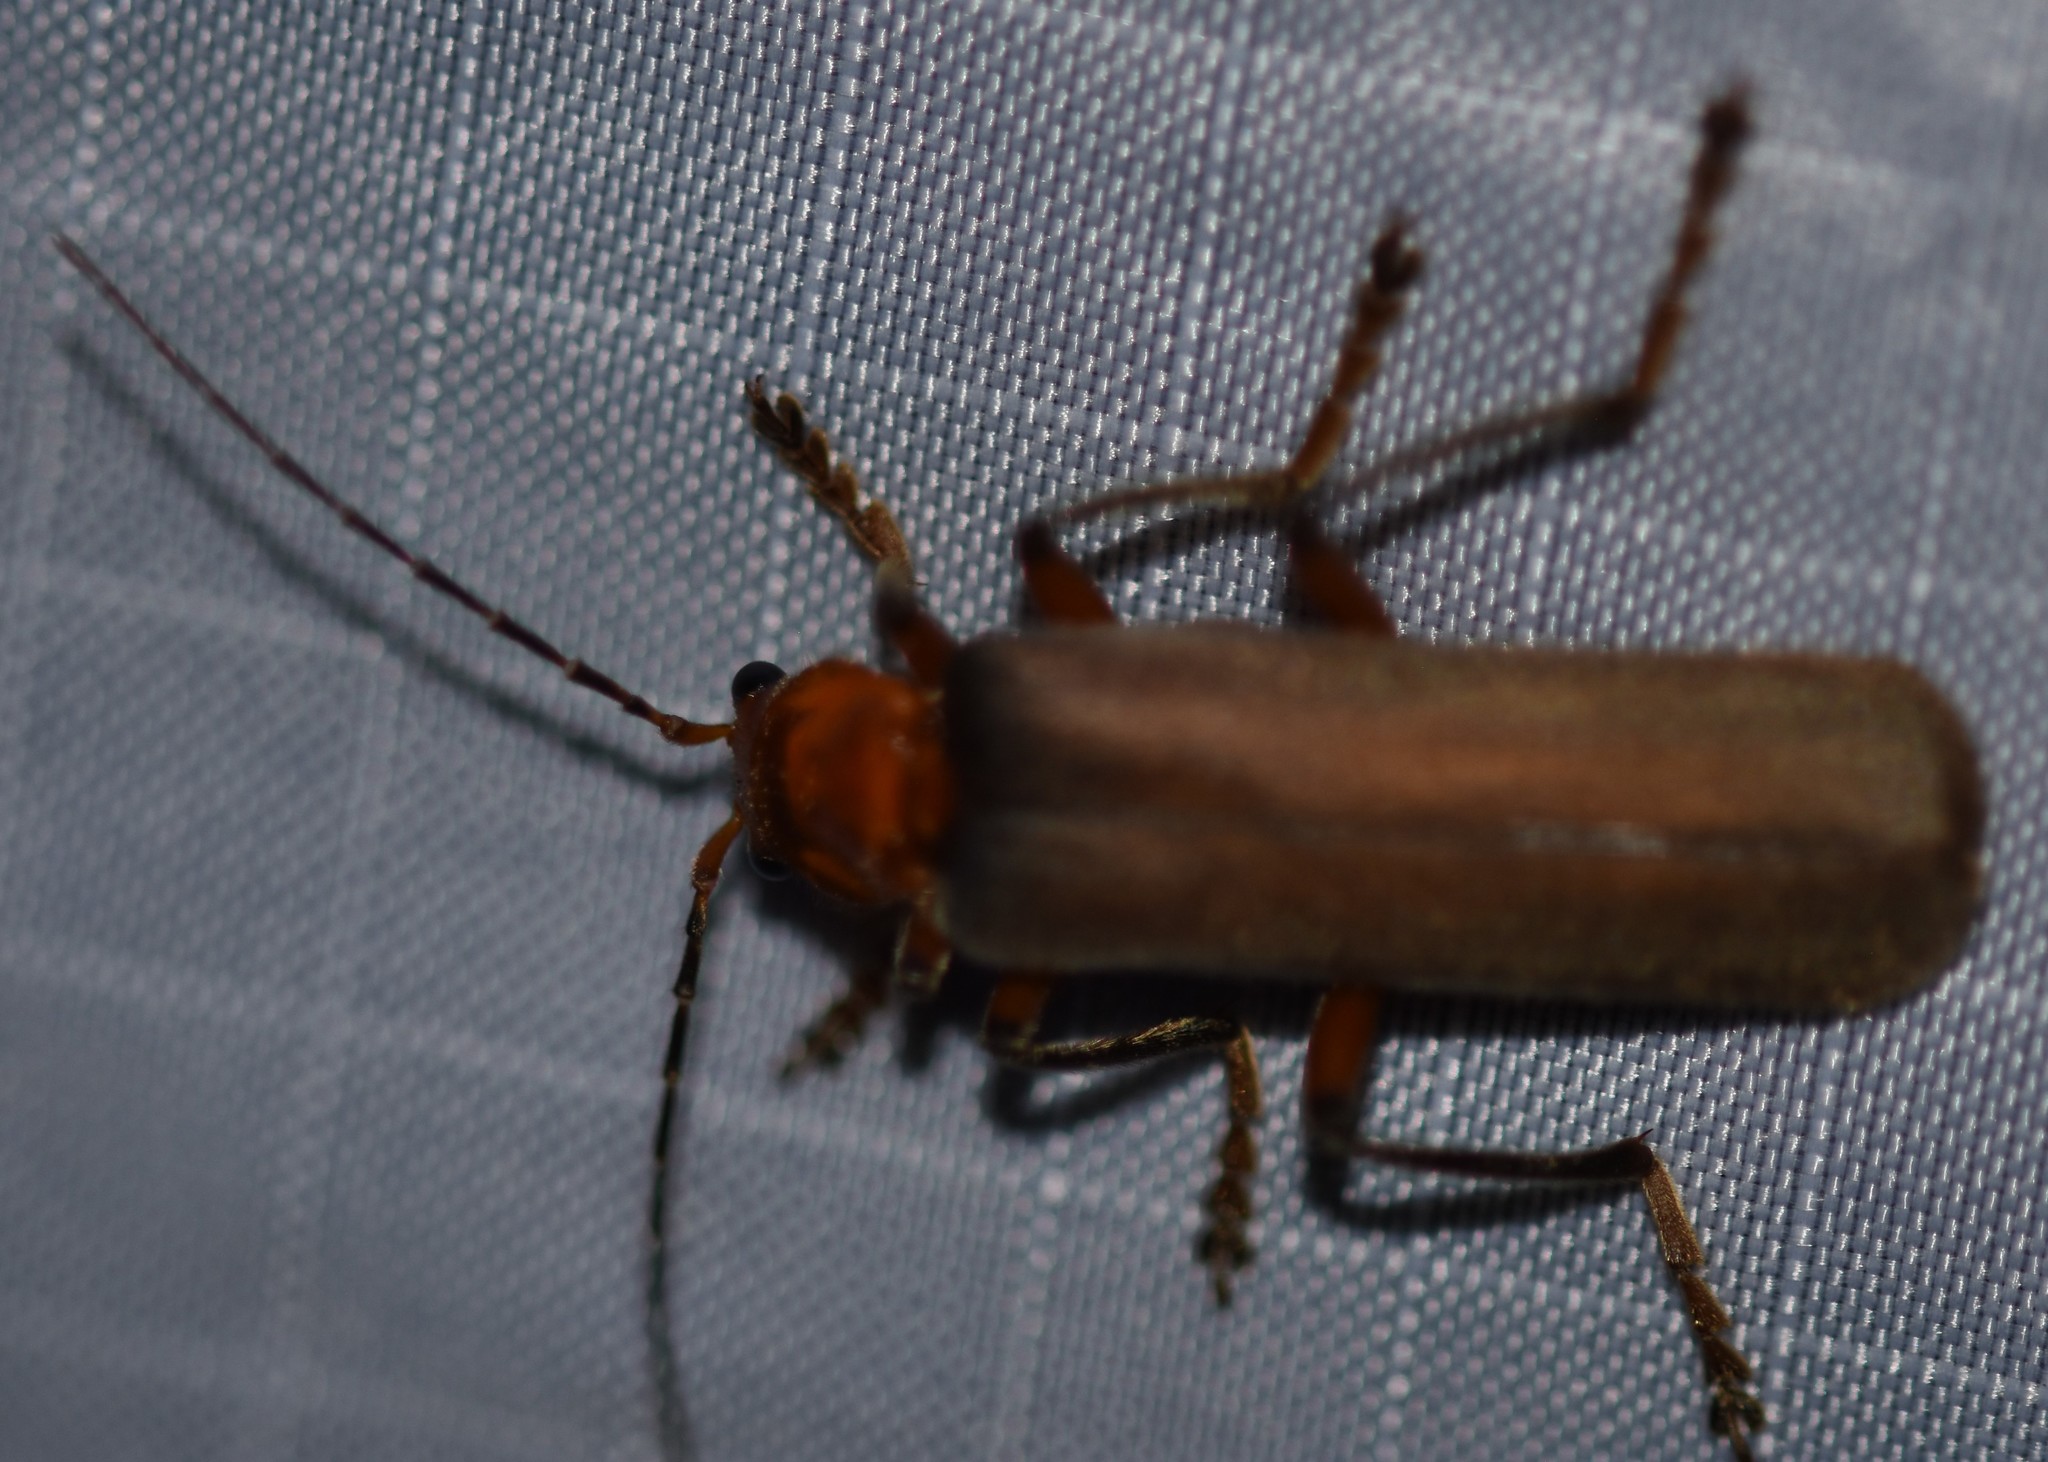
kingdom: Animalia
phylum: Arthropoda
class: Insecta
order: Coleoptera
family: Cantharidae
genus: Pacificanthia
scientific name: Pacificanthia consors
